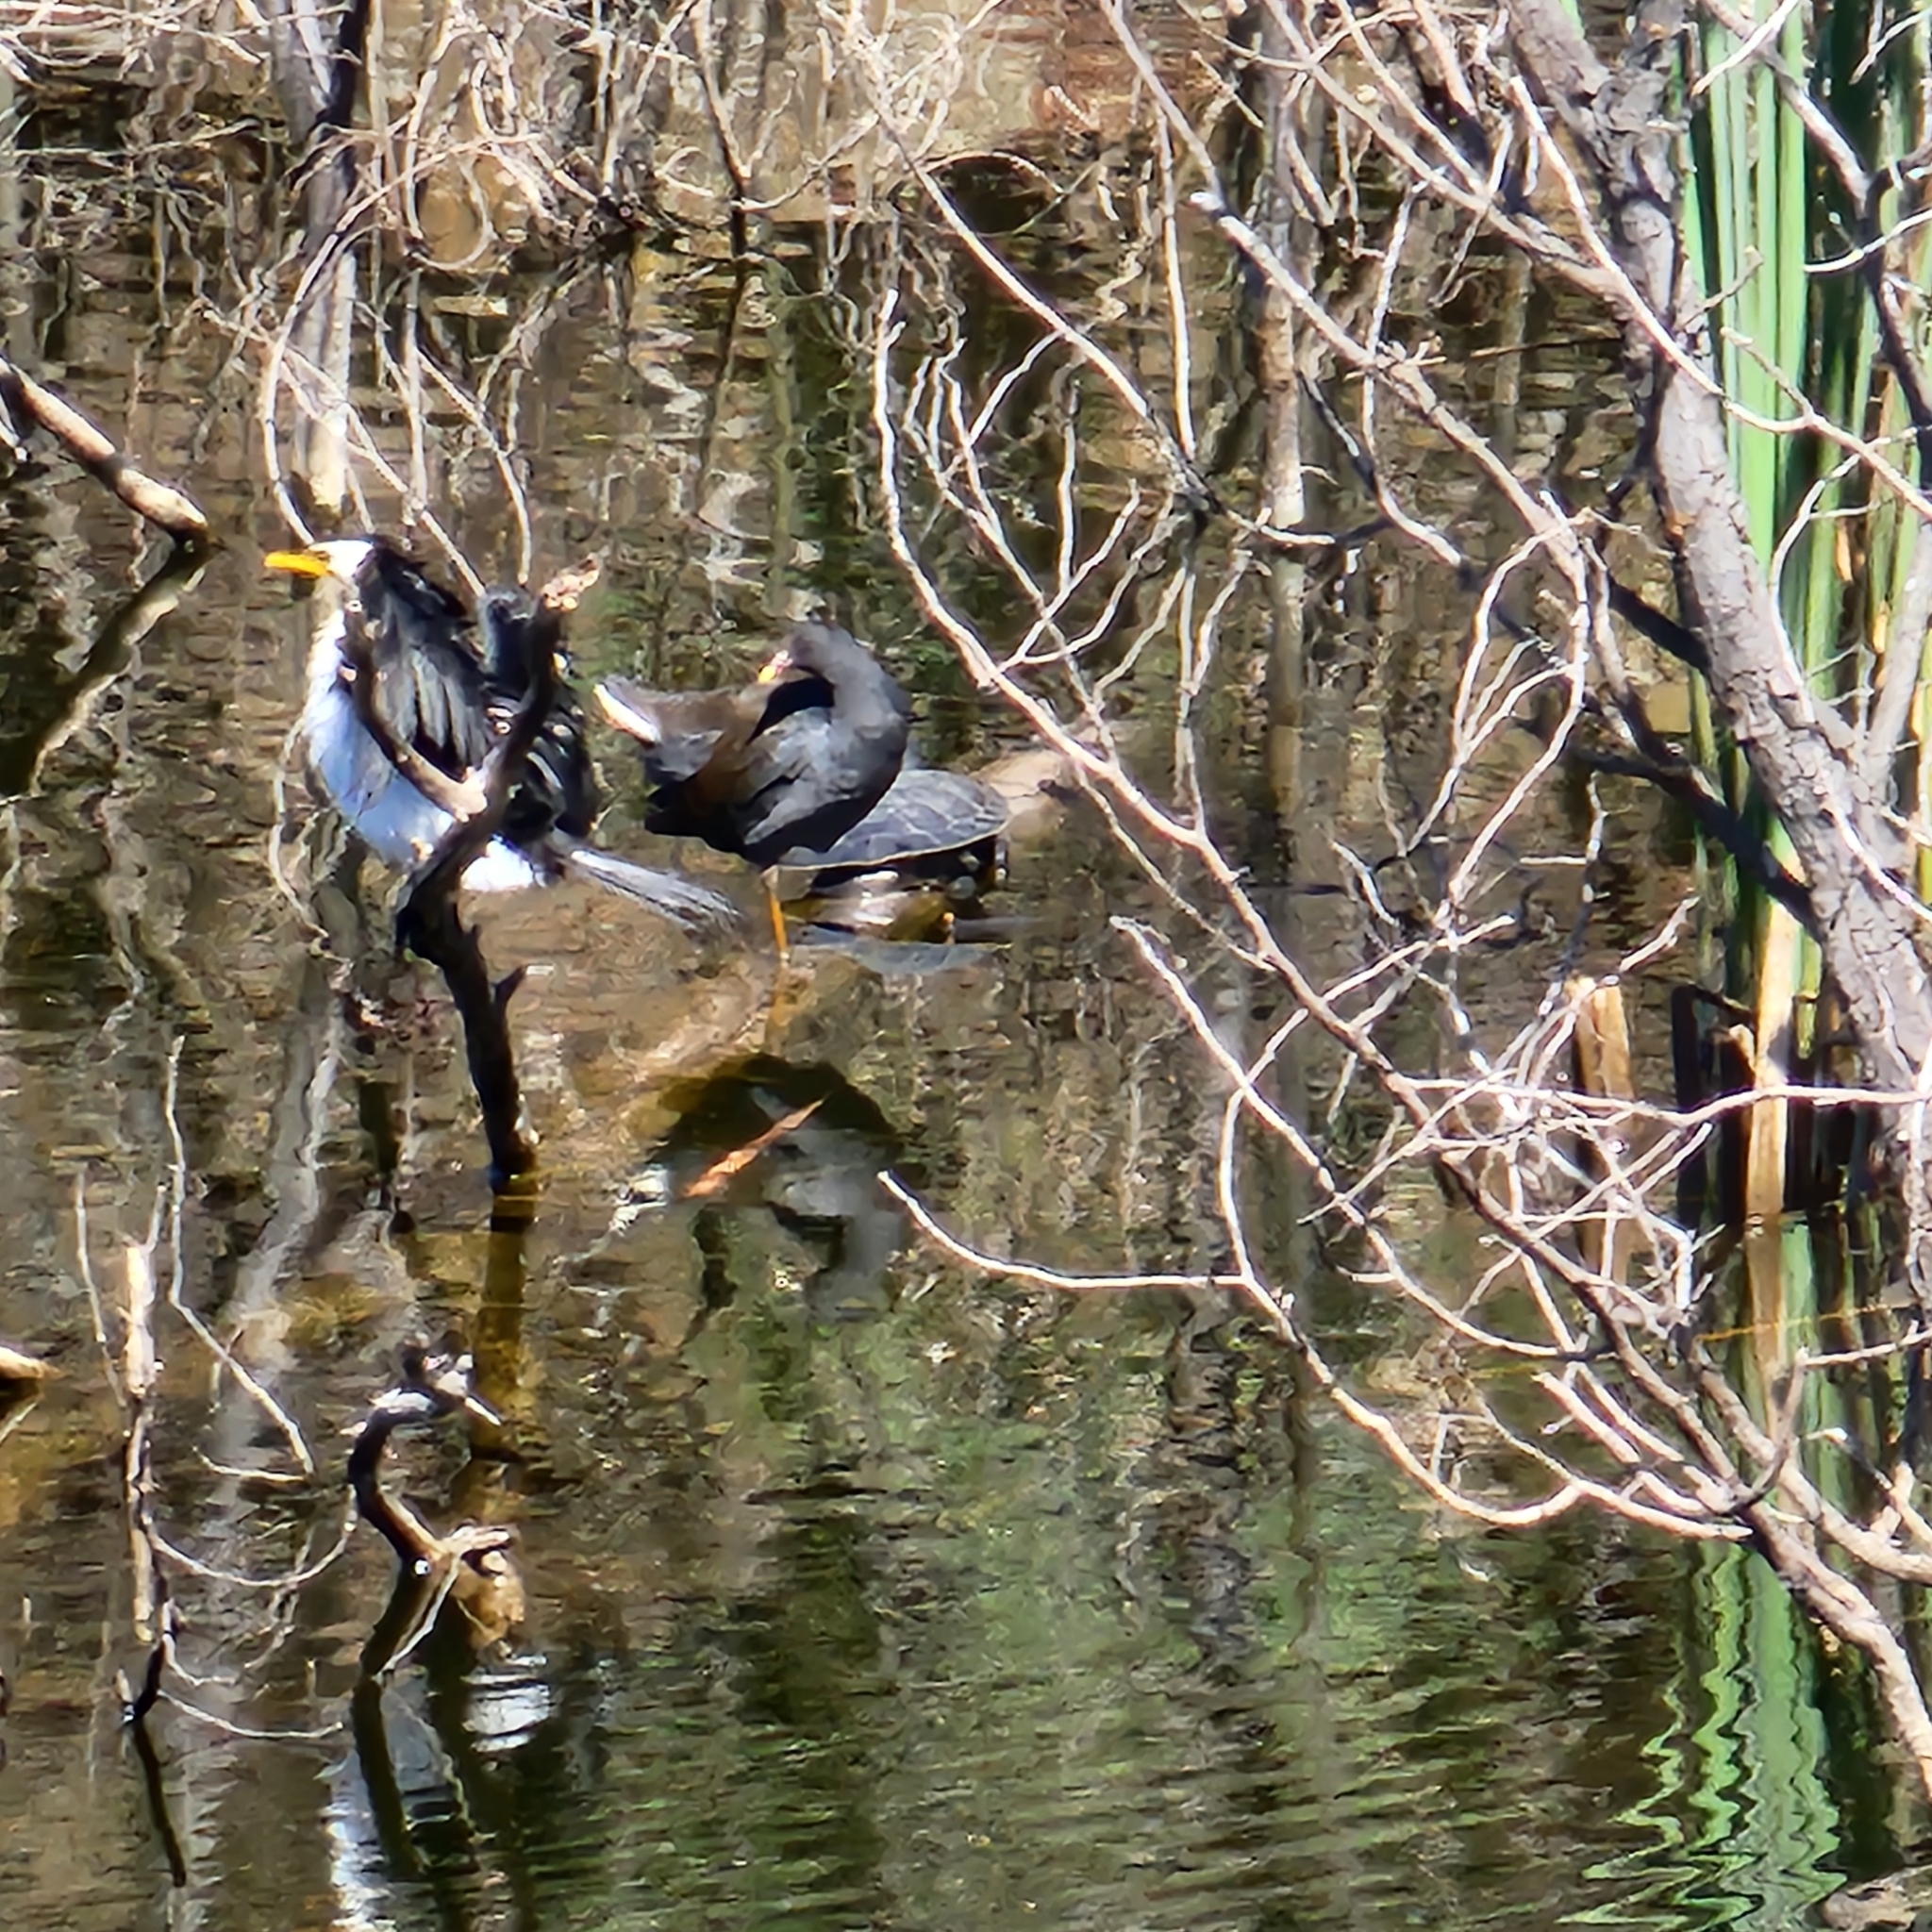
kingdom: Animalia
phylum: Chordata
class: Aves
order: Gruiformes
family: Rallidae
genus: Gallinula
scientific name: Gallinula tenebrosa
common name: Dusky moorhen
